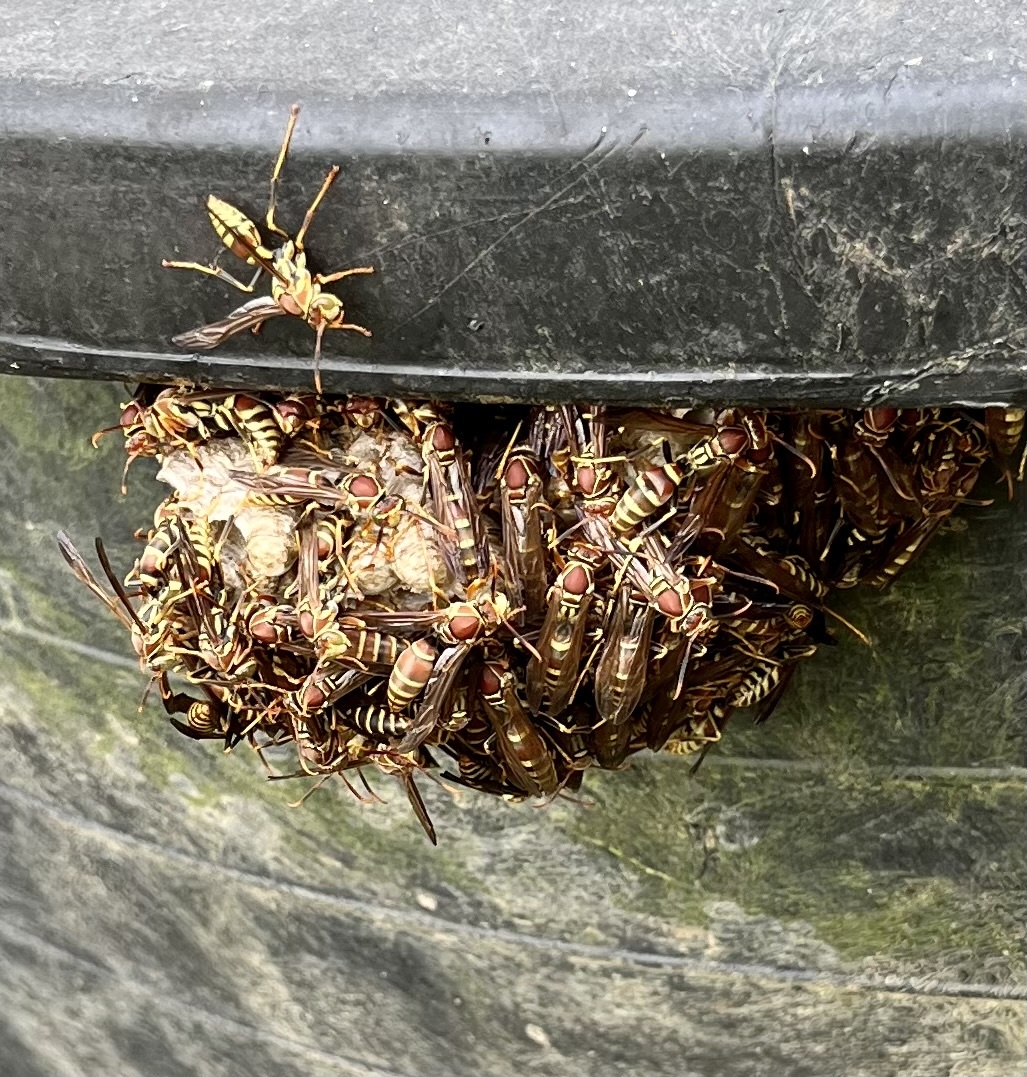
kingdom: Animalia
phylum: Arthropoda
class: Insecta
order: Hymenoptera
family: Eumenidae
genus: Polistes
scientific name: Polistes exclamans
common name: Paper wasp
